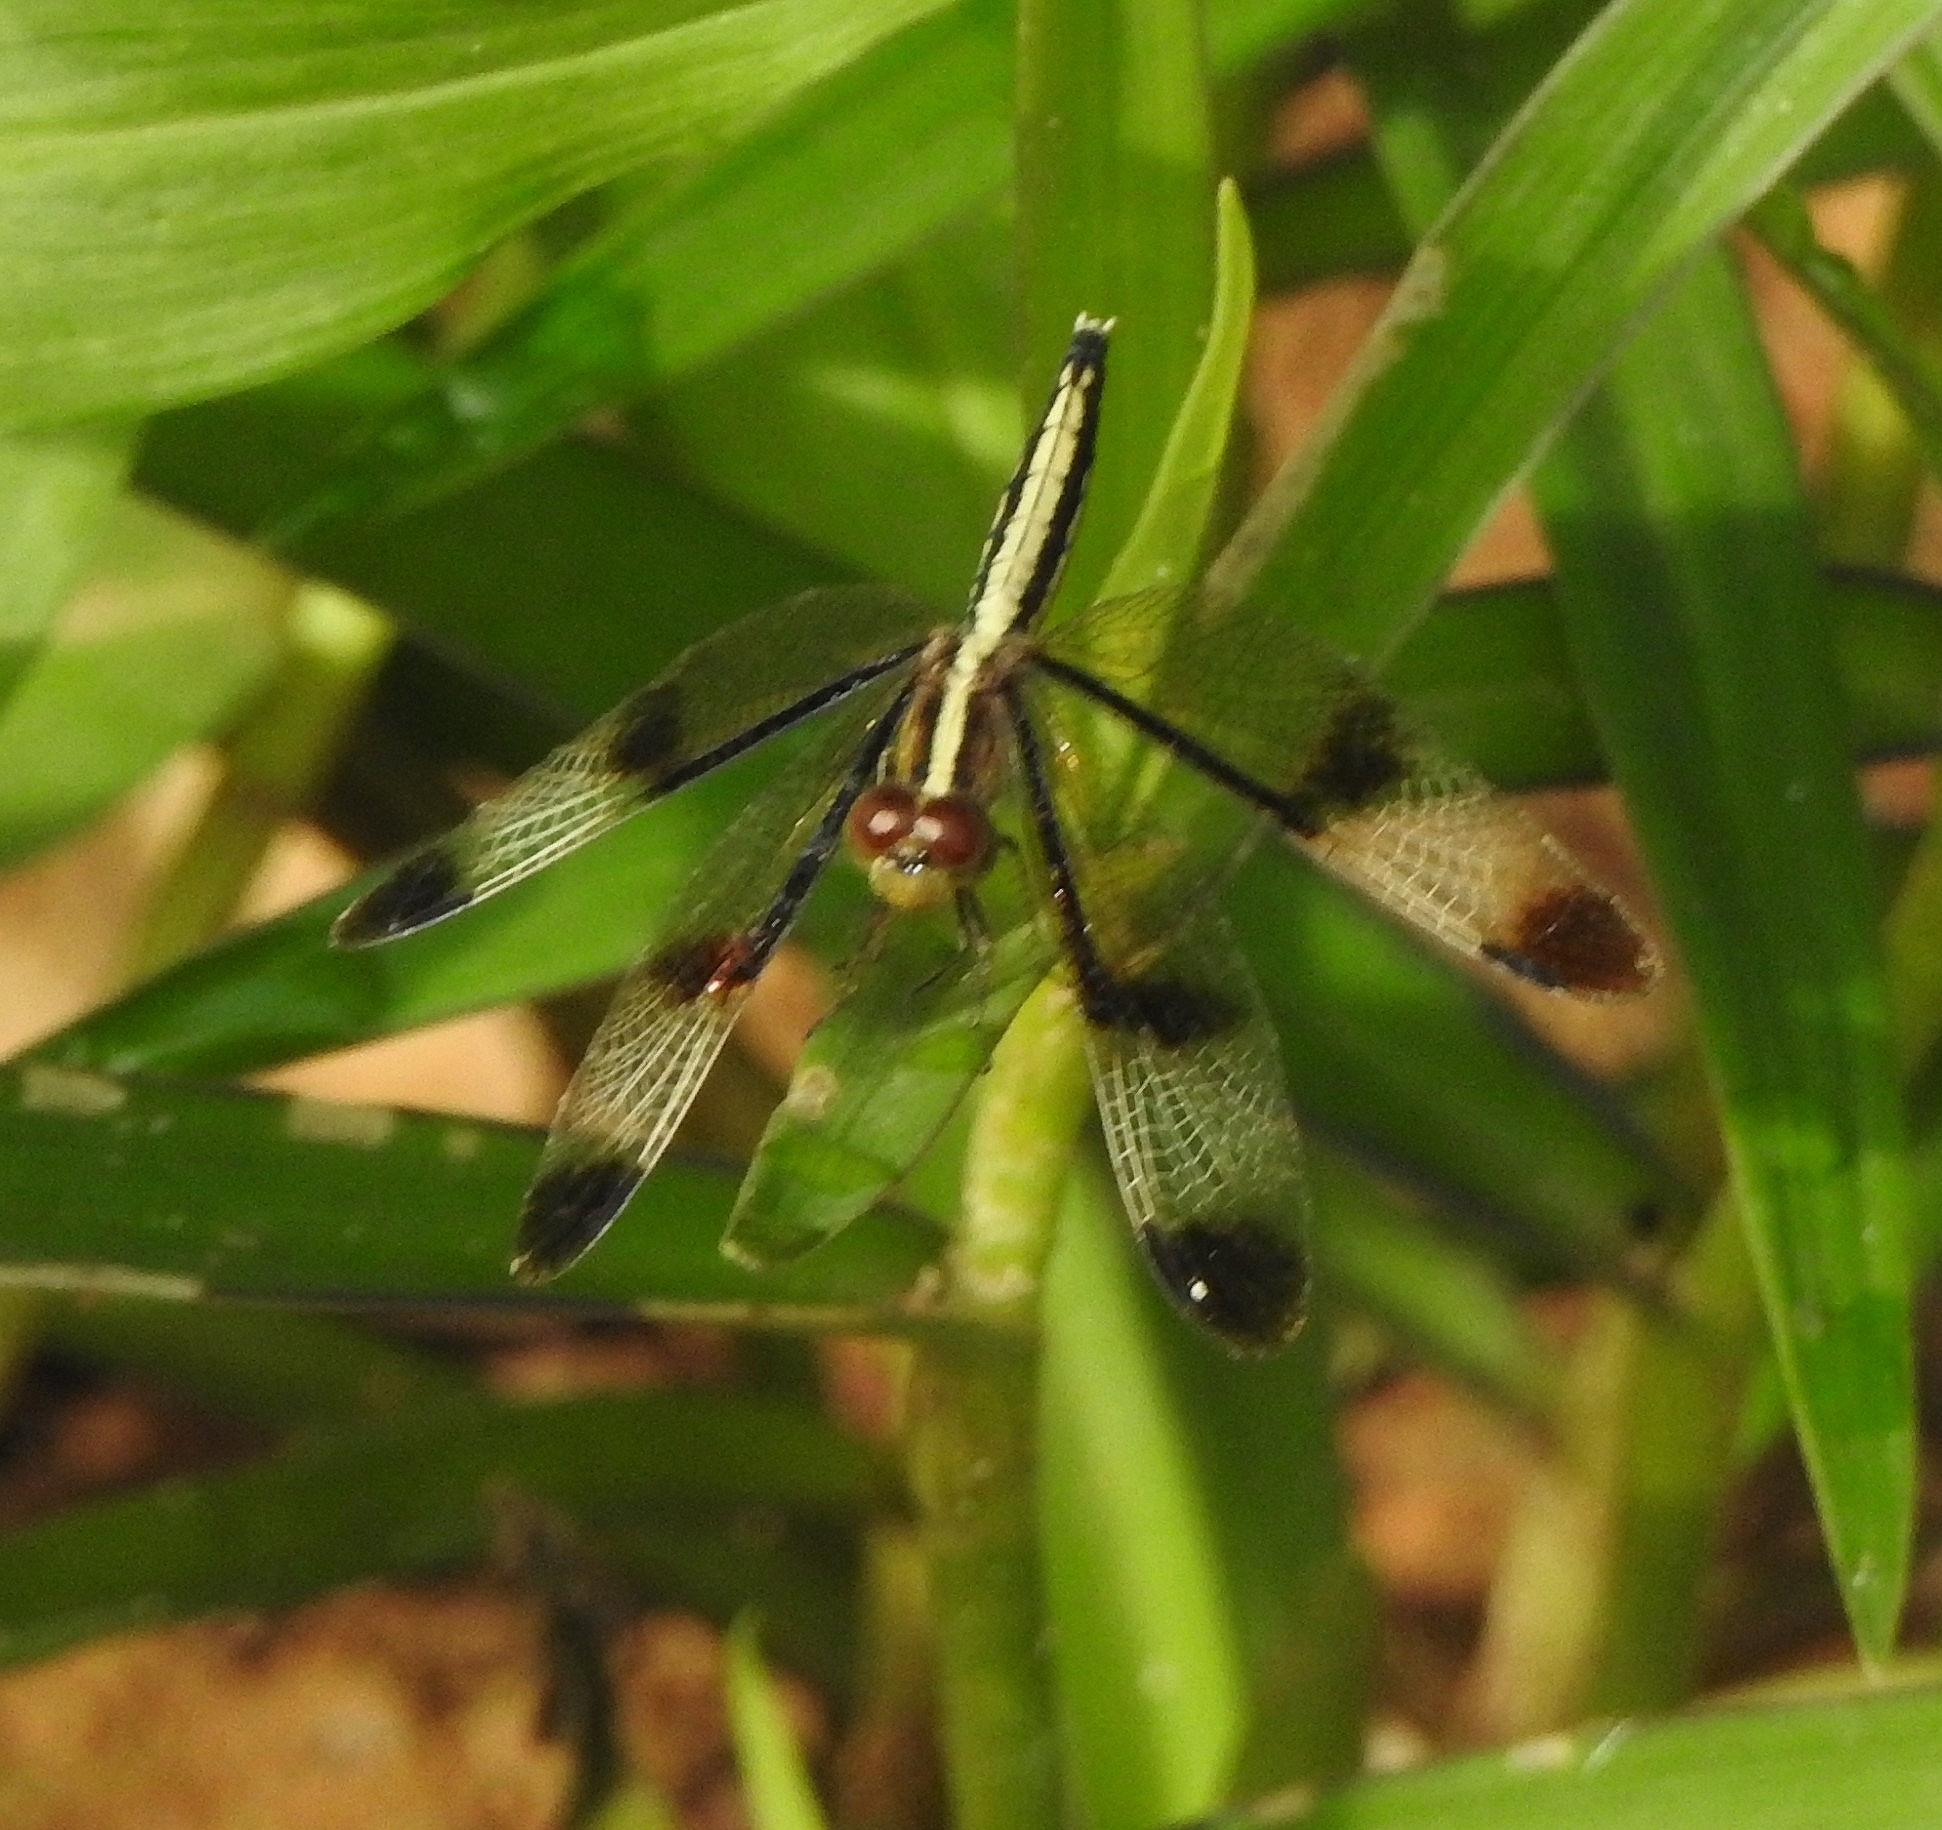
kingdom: Animalia
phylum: Arthropoda
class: Insecta
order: Odonata
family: Libellulidae
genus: Neurothemis
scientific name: Neurothemis tullia
